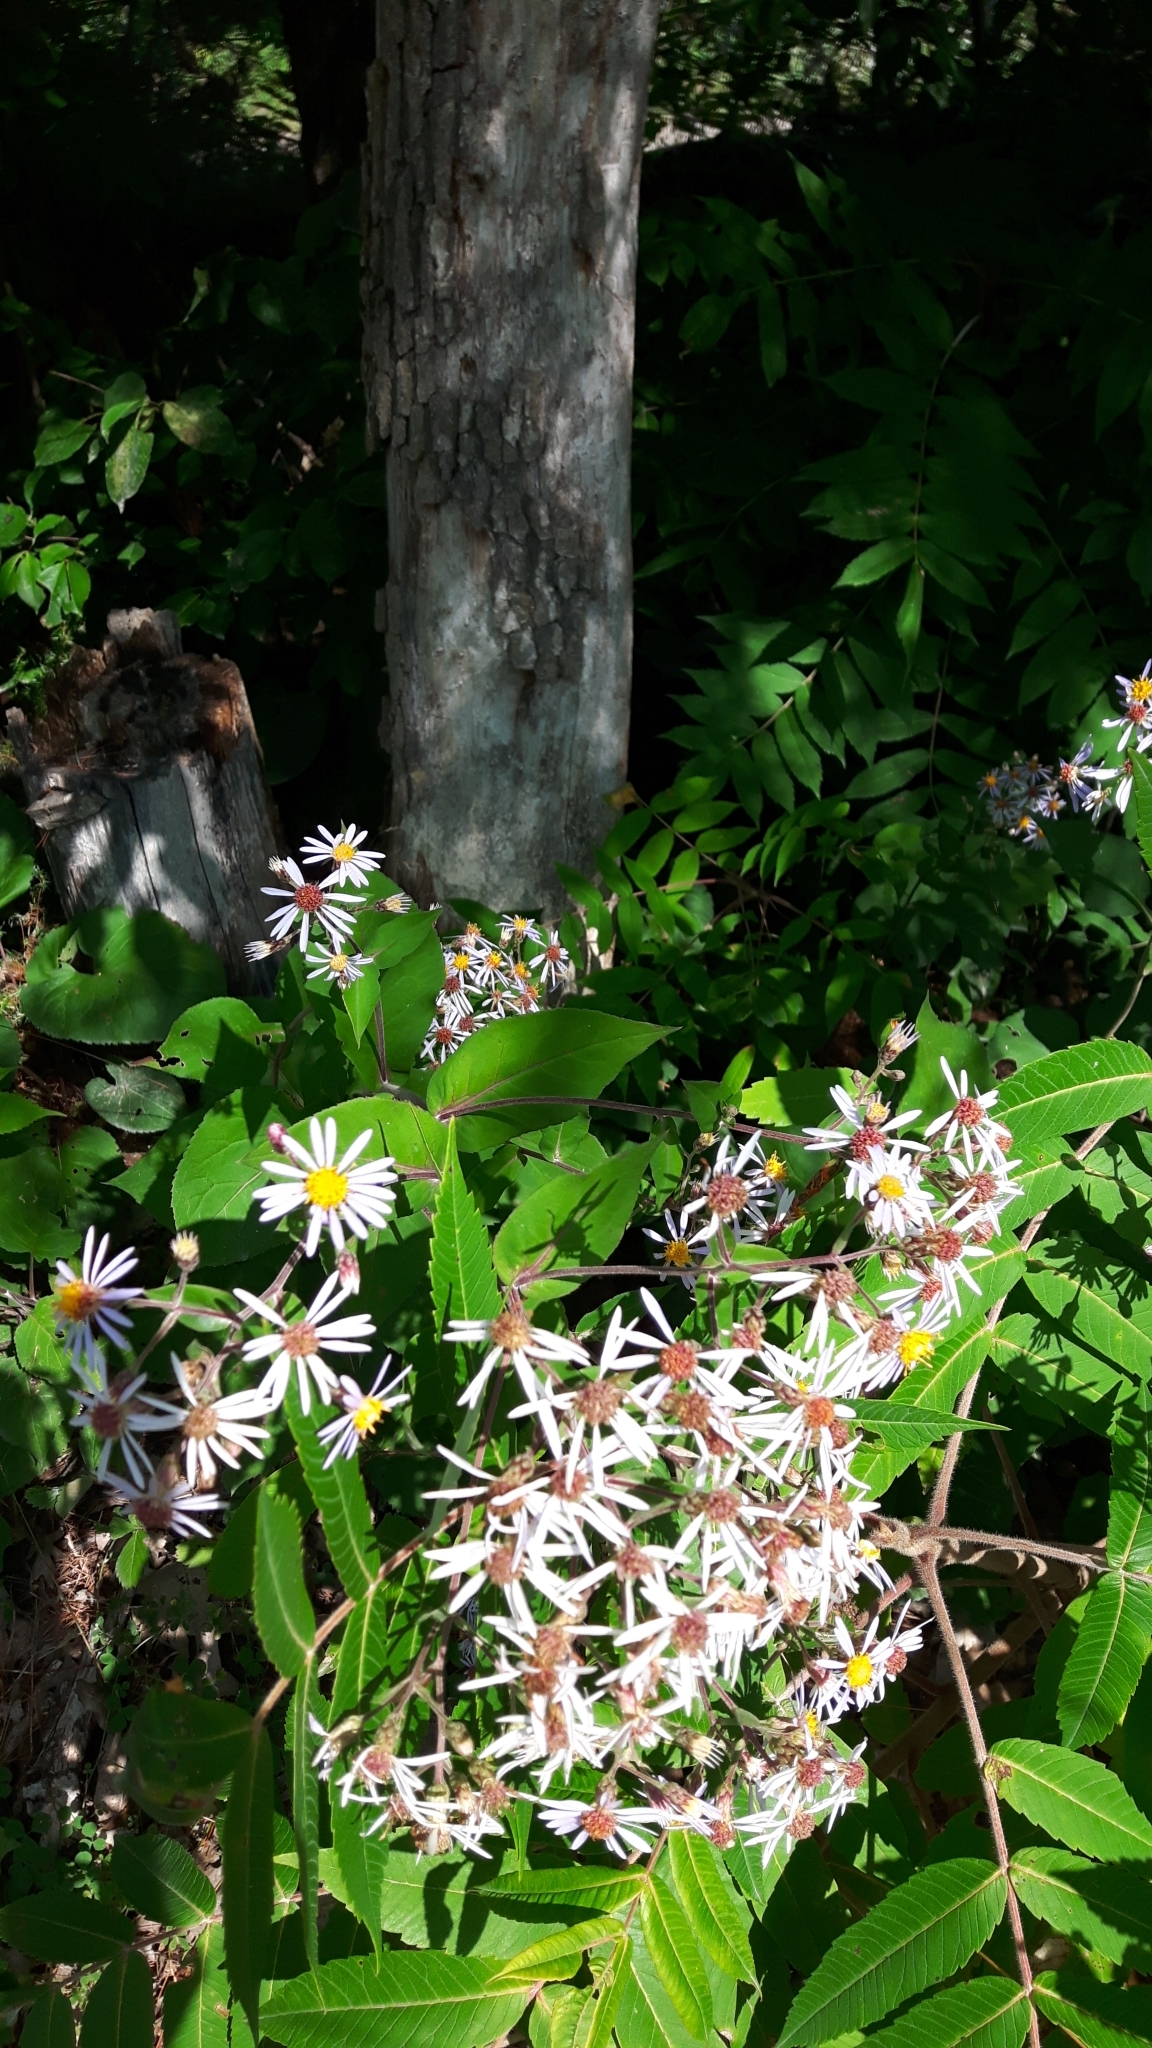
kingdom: Plantae
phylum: Tracheophyta
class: Magnoliopsida
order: Asterales
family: Asteraceae
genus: Eurybia
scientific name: Eurybia macrophylla
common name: Big-leaved aster
